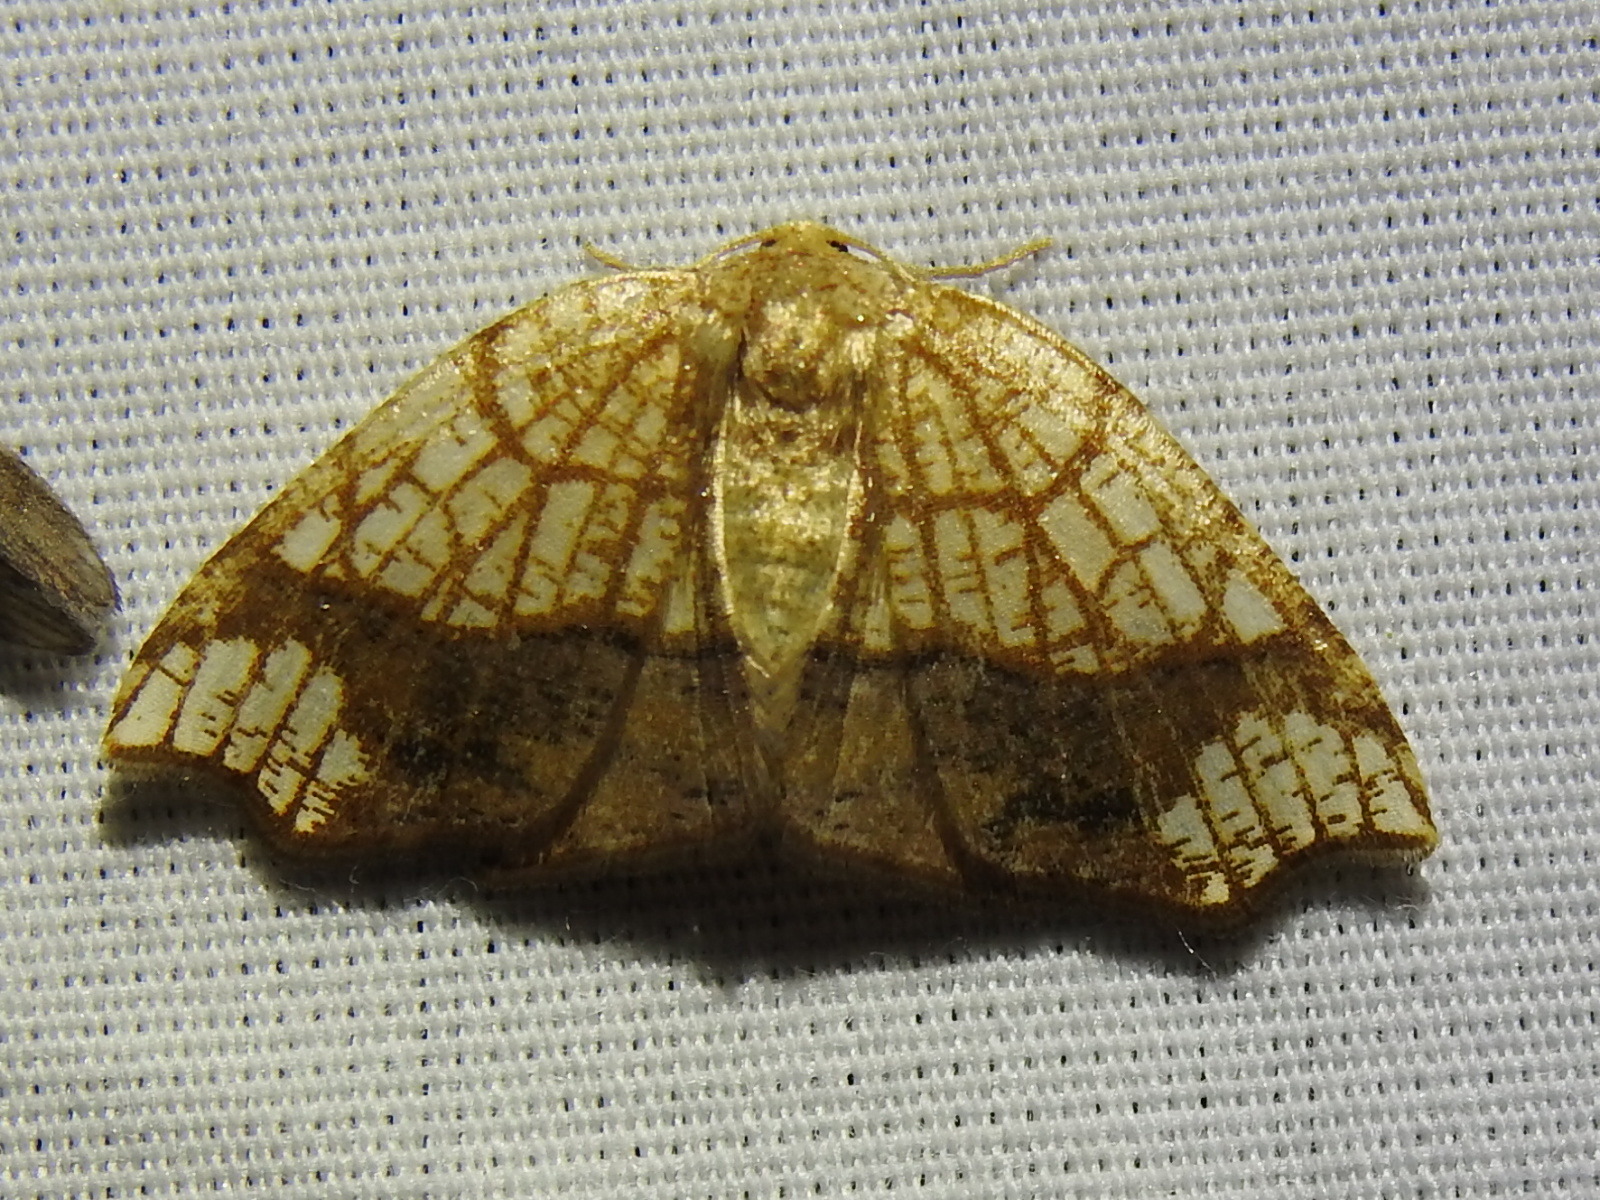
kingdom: Animalia
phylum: Arthropoda
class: Insecta
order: Lepidoptera
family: Geometridae
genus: Nematocampa
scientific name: Nematocampa resistaria
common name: Horned spanworm moth
